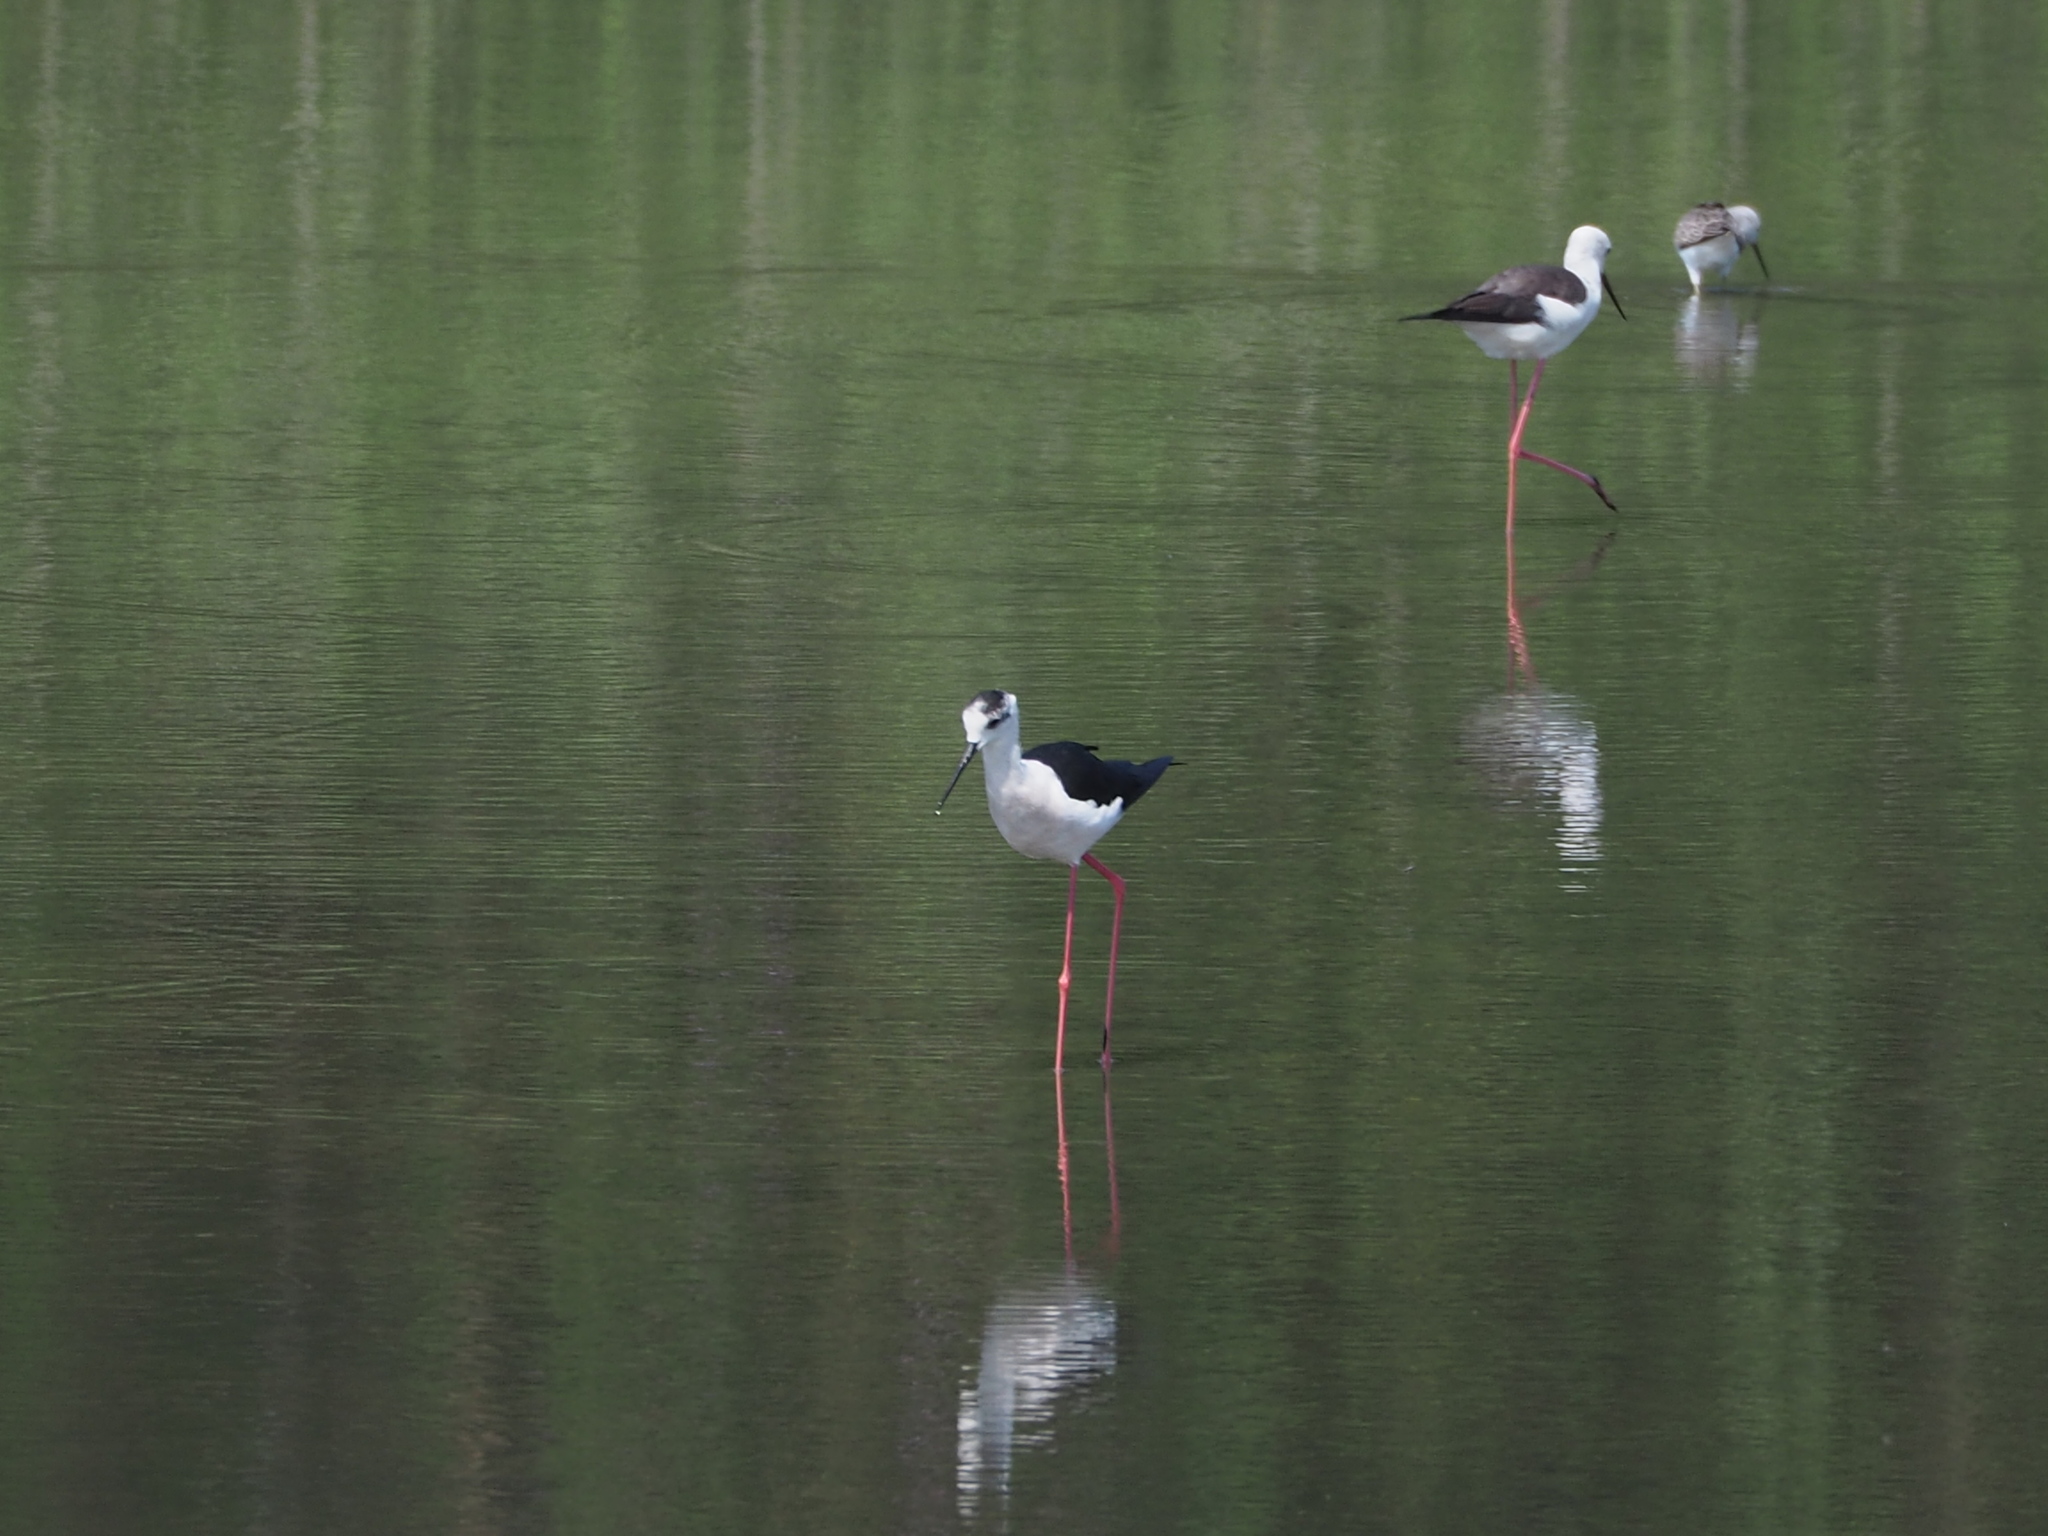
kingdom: Animalia
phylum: Chordata
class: Aves
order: Charadriiformes
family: Recurvirostridae
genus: Himantopus
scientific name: Himantopus himantopus
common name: Black-winged stilt
